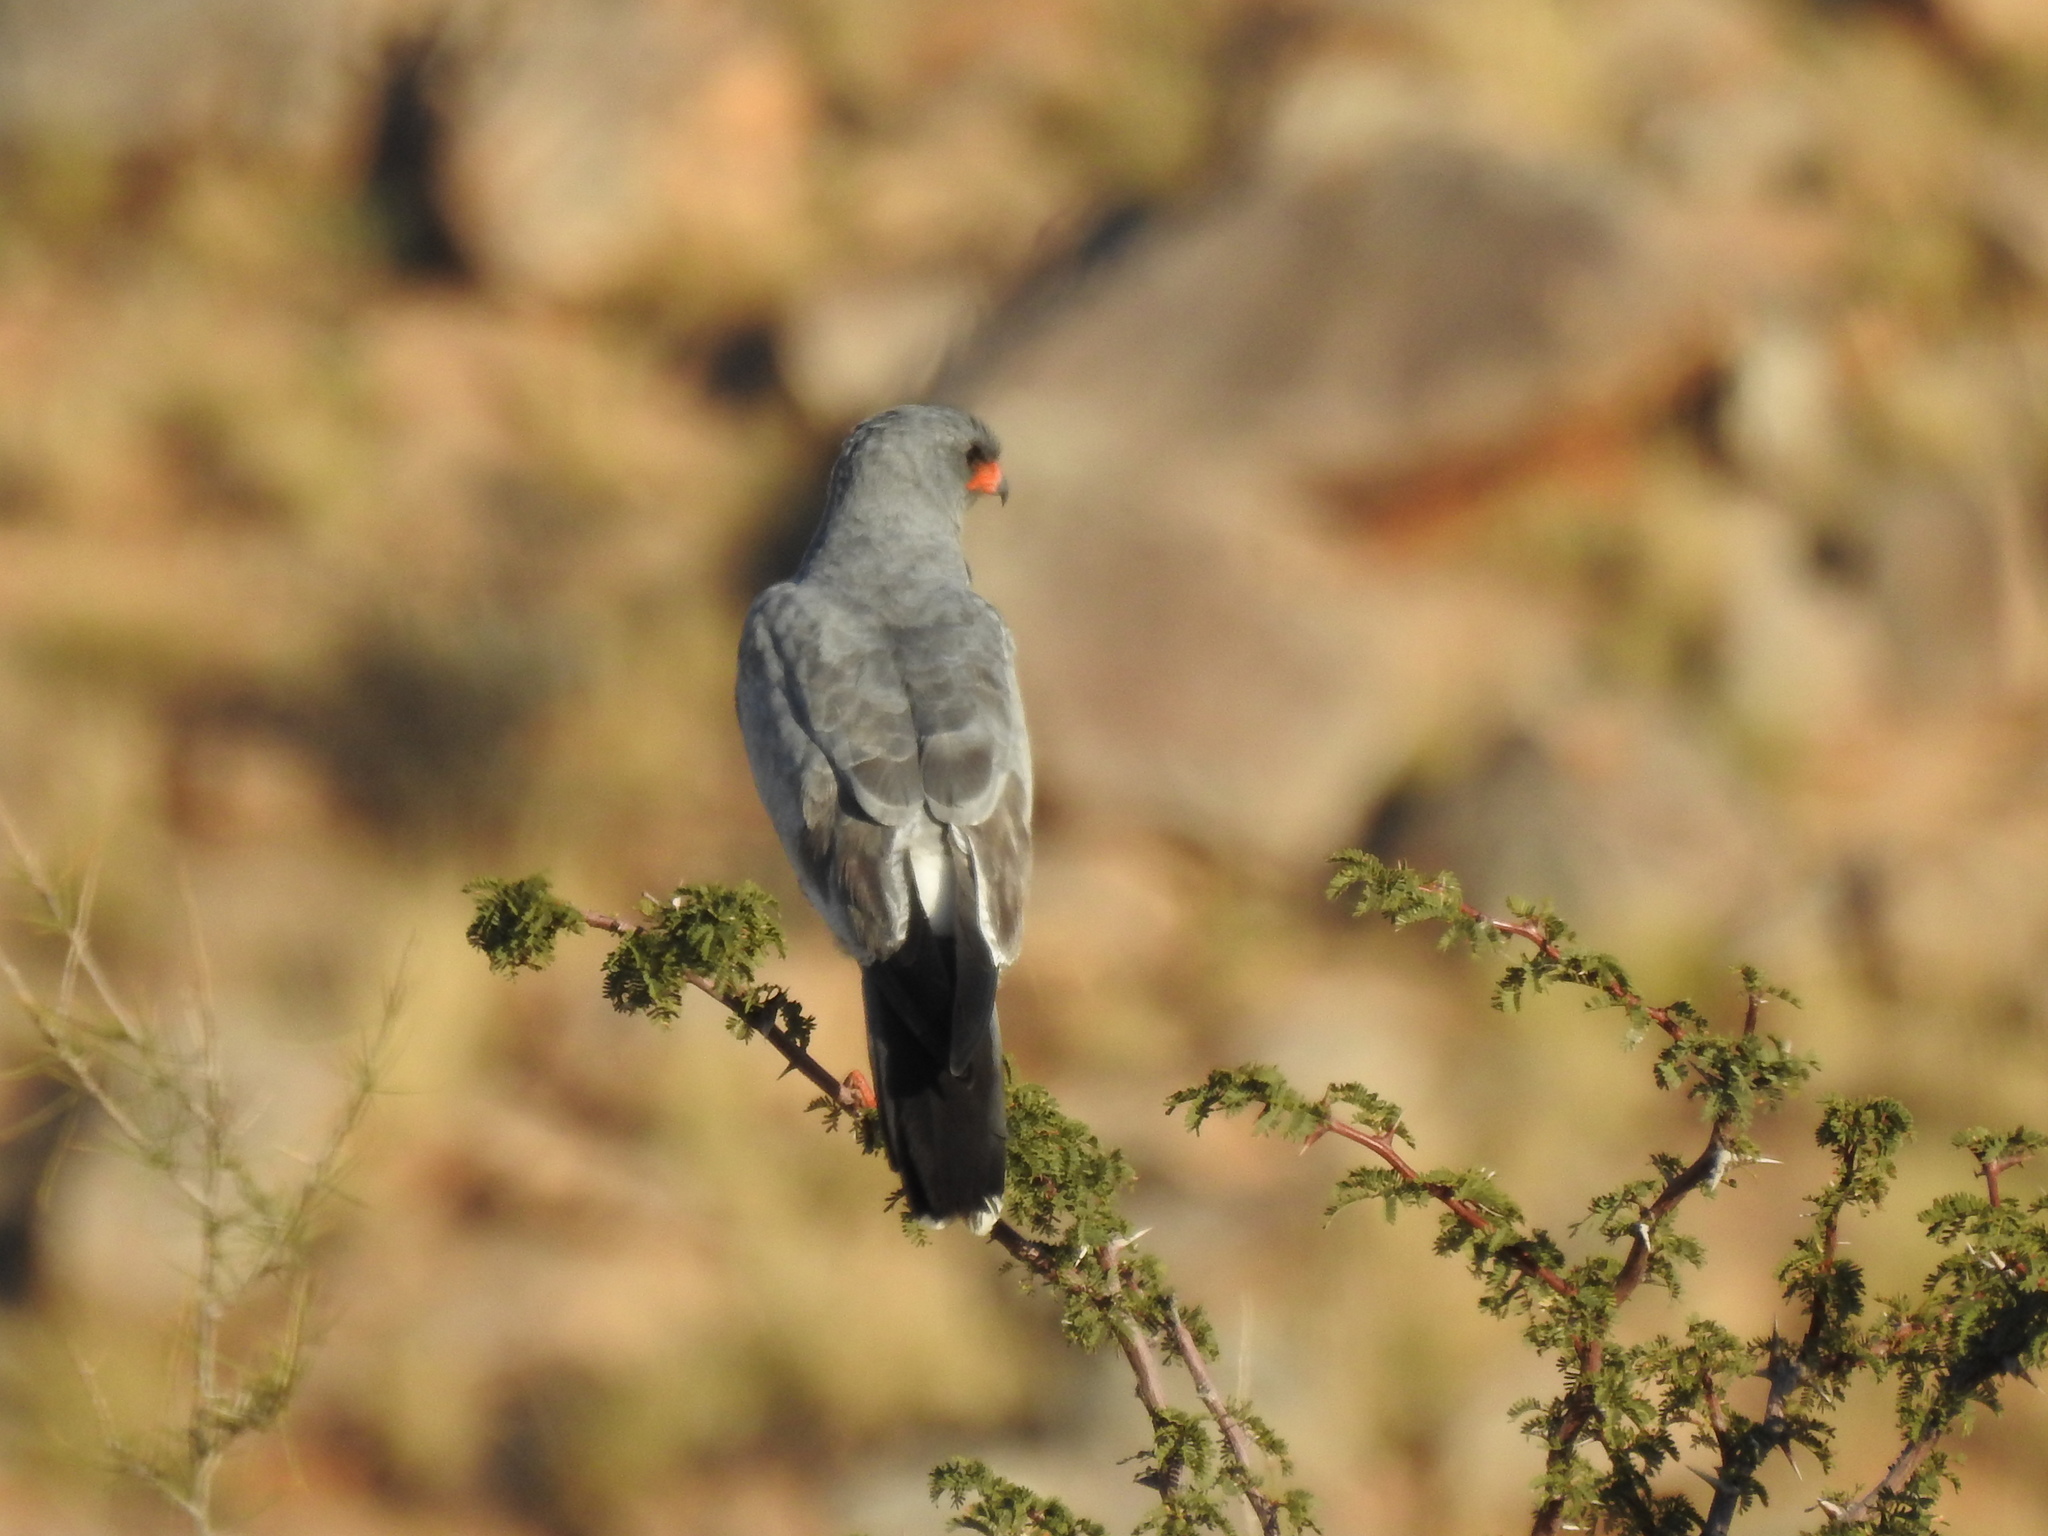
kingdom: Animalia
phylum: Chordata
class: Aves
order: Accipitriformes
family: Accipitridae
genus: Melierax
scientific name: Melierax canorus
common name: Pale chanting-goshawk
